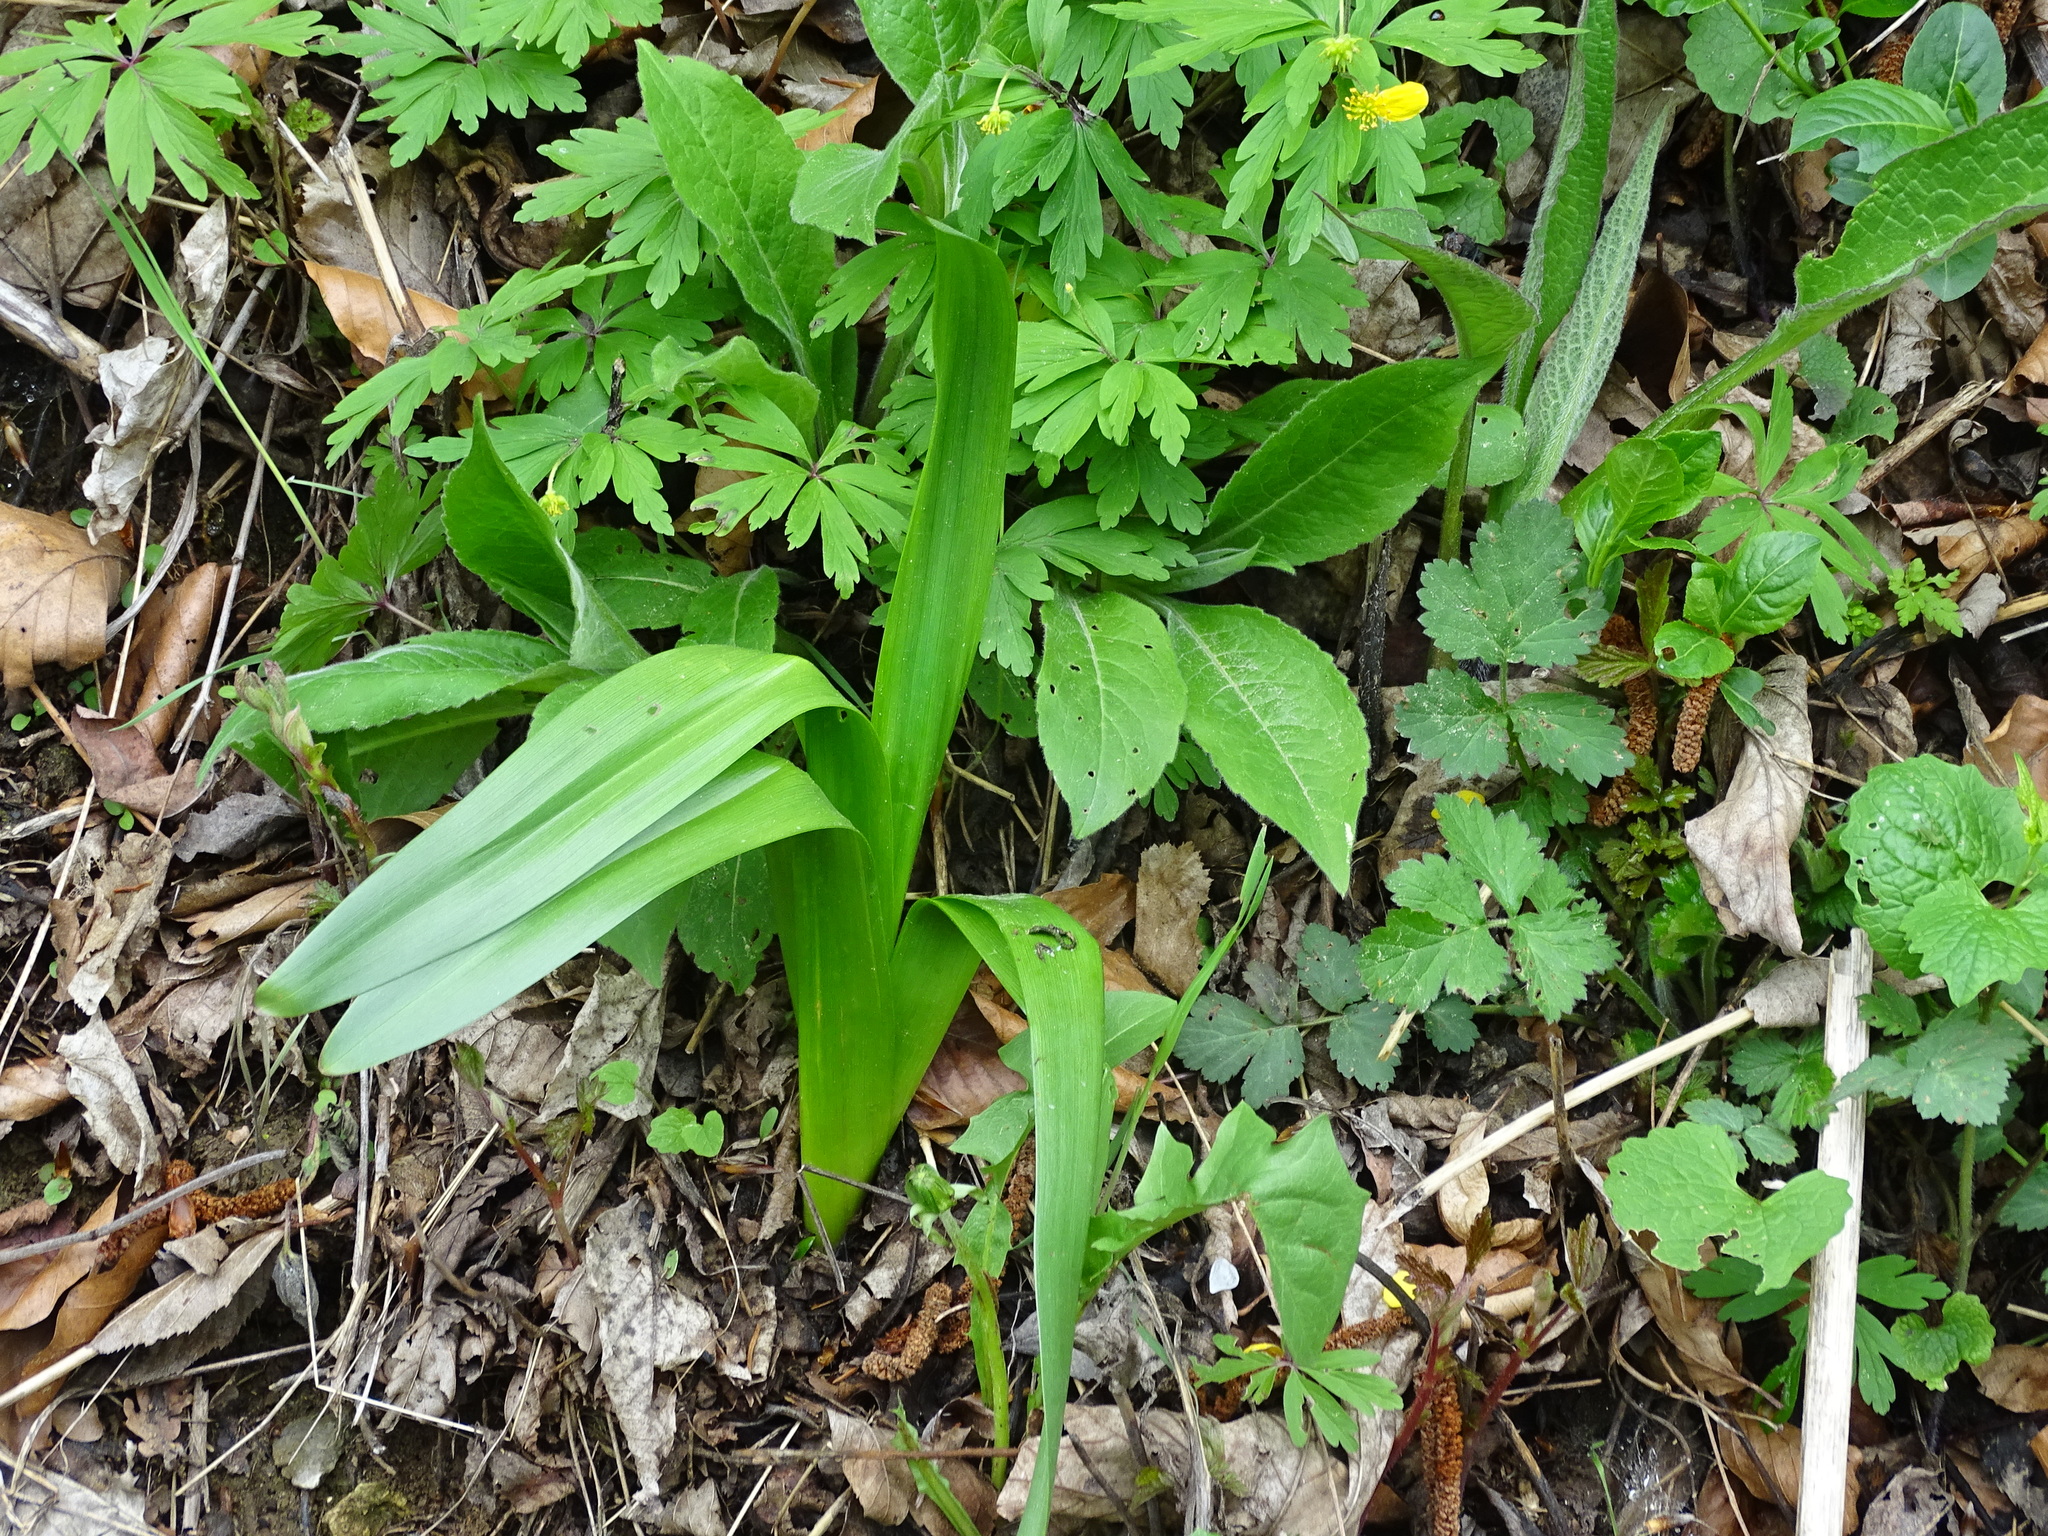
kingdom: Plantae
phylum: Tracheophyta
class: Liliopsida
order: Liliales
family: Colchicaceae
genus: Colchicum
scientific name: Colchicum autumnale
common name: Autumn crocus
